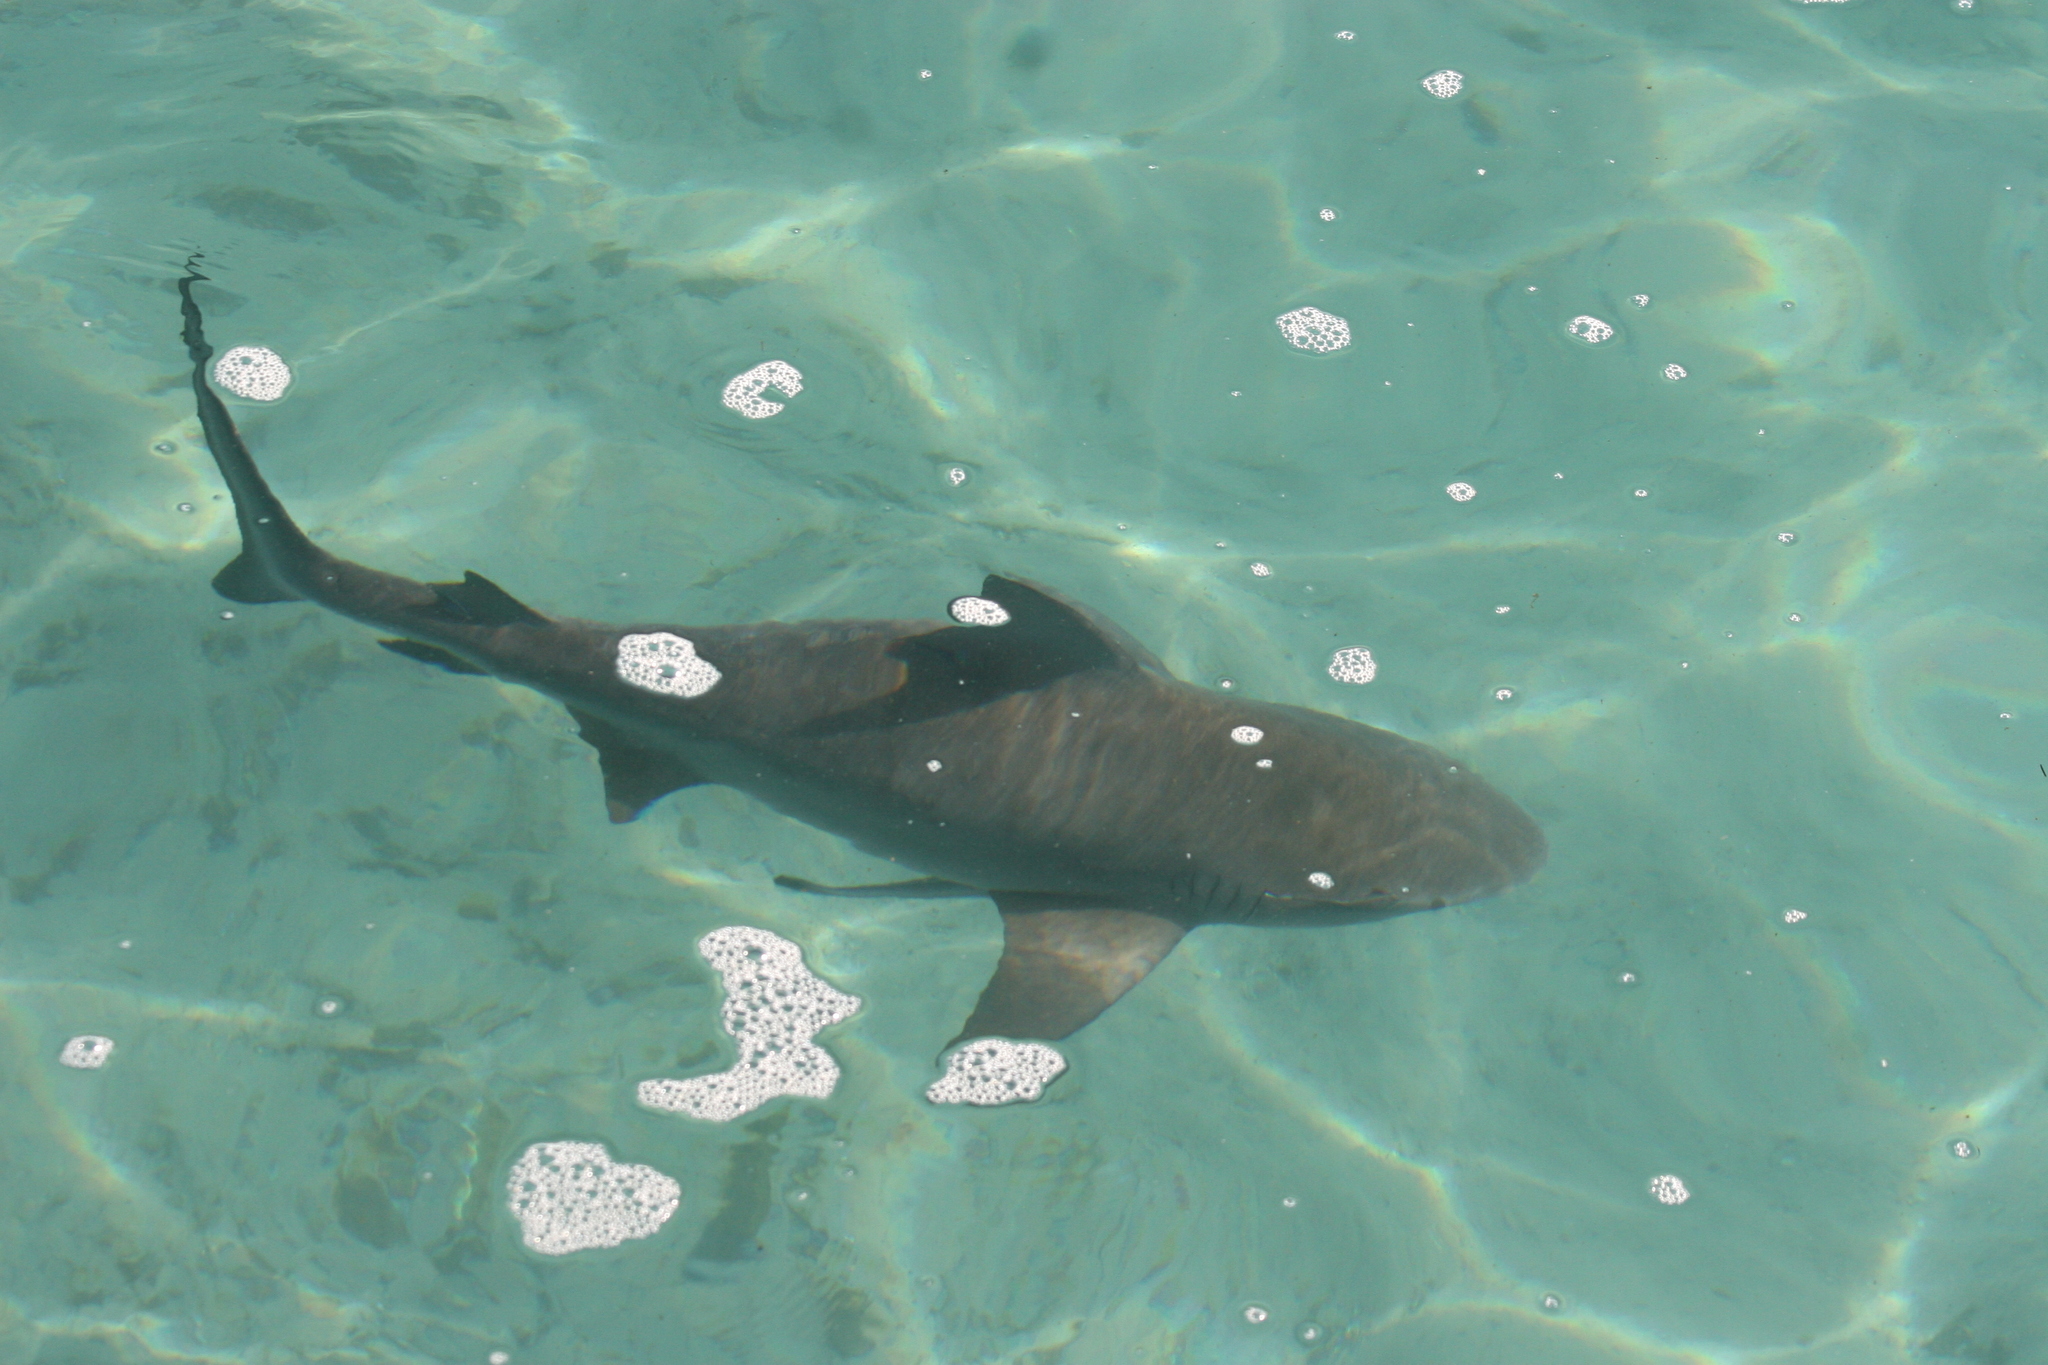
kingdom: Animalia
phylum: Chordata
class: Elasmobranchii
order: Carcharhiniformes
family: Carcharhinidae
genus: Carcharhinus
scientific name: Carcharhinus leucas
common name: Bull shark
